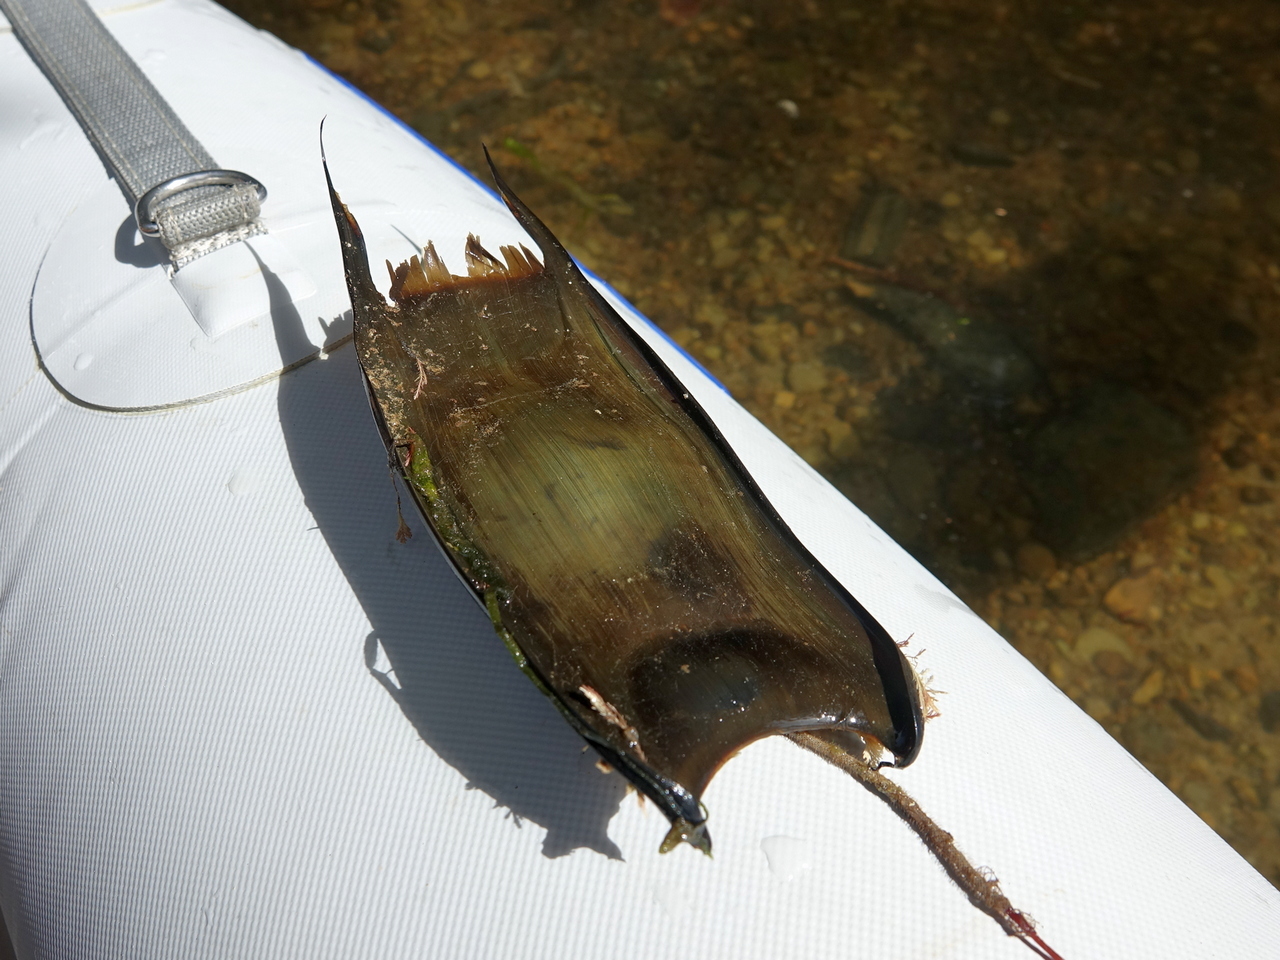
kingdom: Animalia
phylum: Chordata
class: Elasmobranchii
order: Rajiformes
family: Rajidae
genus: Dipturus
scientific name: Dipturus innominatus
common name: New zealand smooth skate
